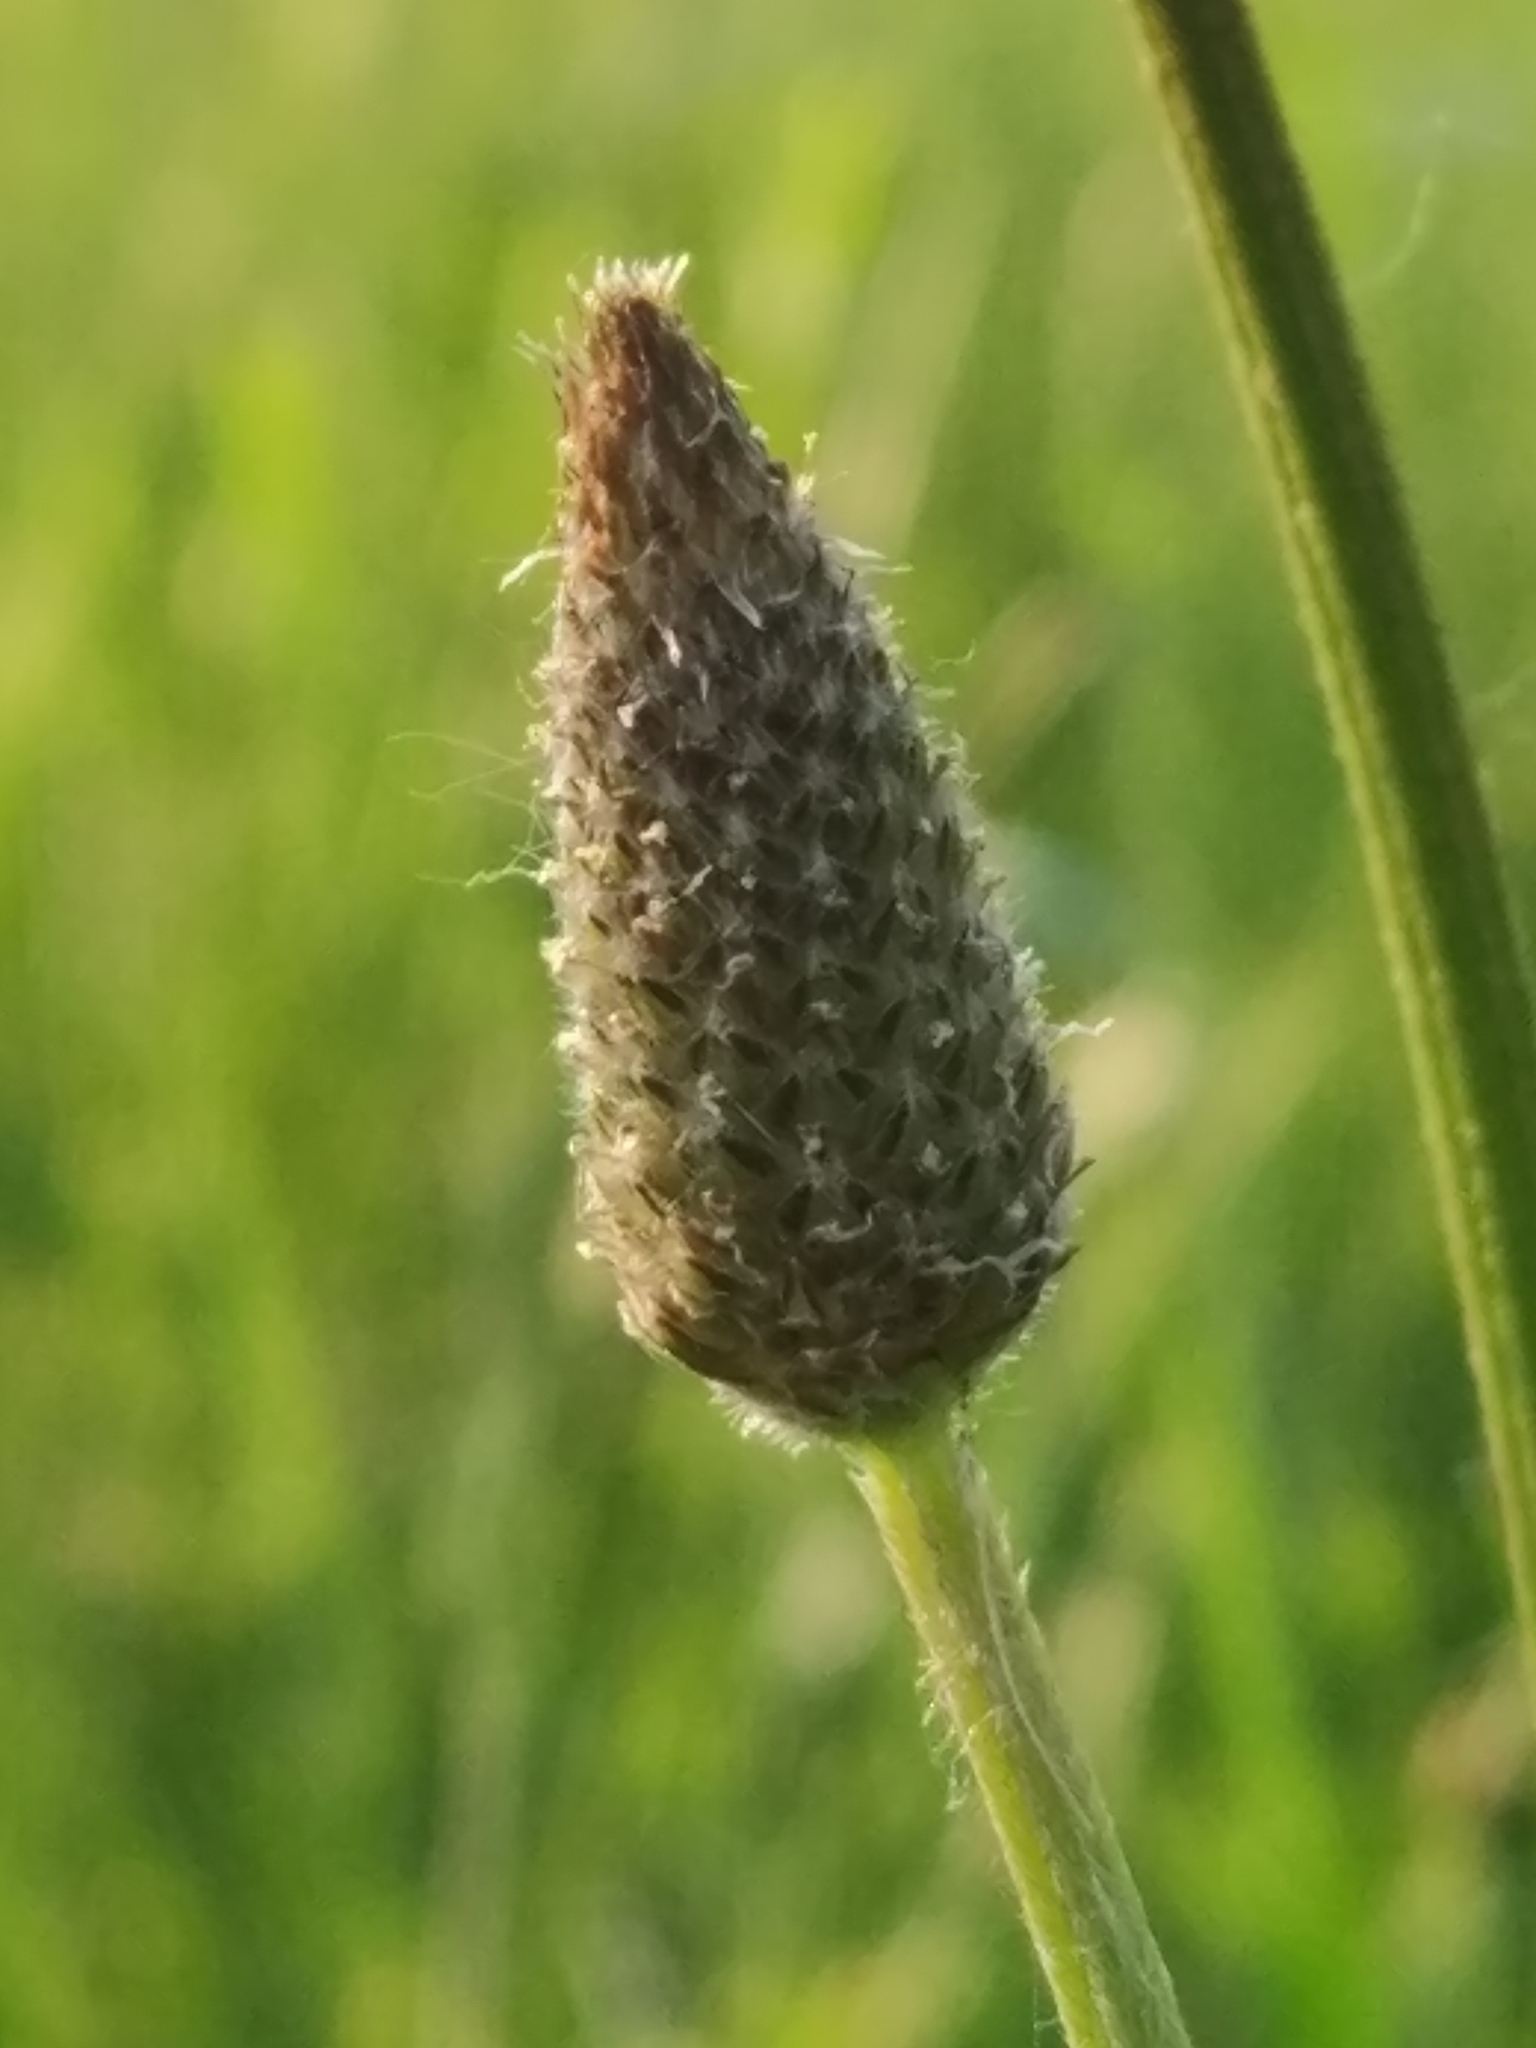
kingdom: Plantae
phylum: Tracheophyta
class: Magnoliopsida
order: Lamiales
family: Plantaginaceae
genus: Plantago
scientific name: Plantago lanceolata
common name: Ribwort plantain
